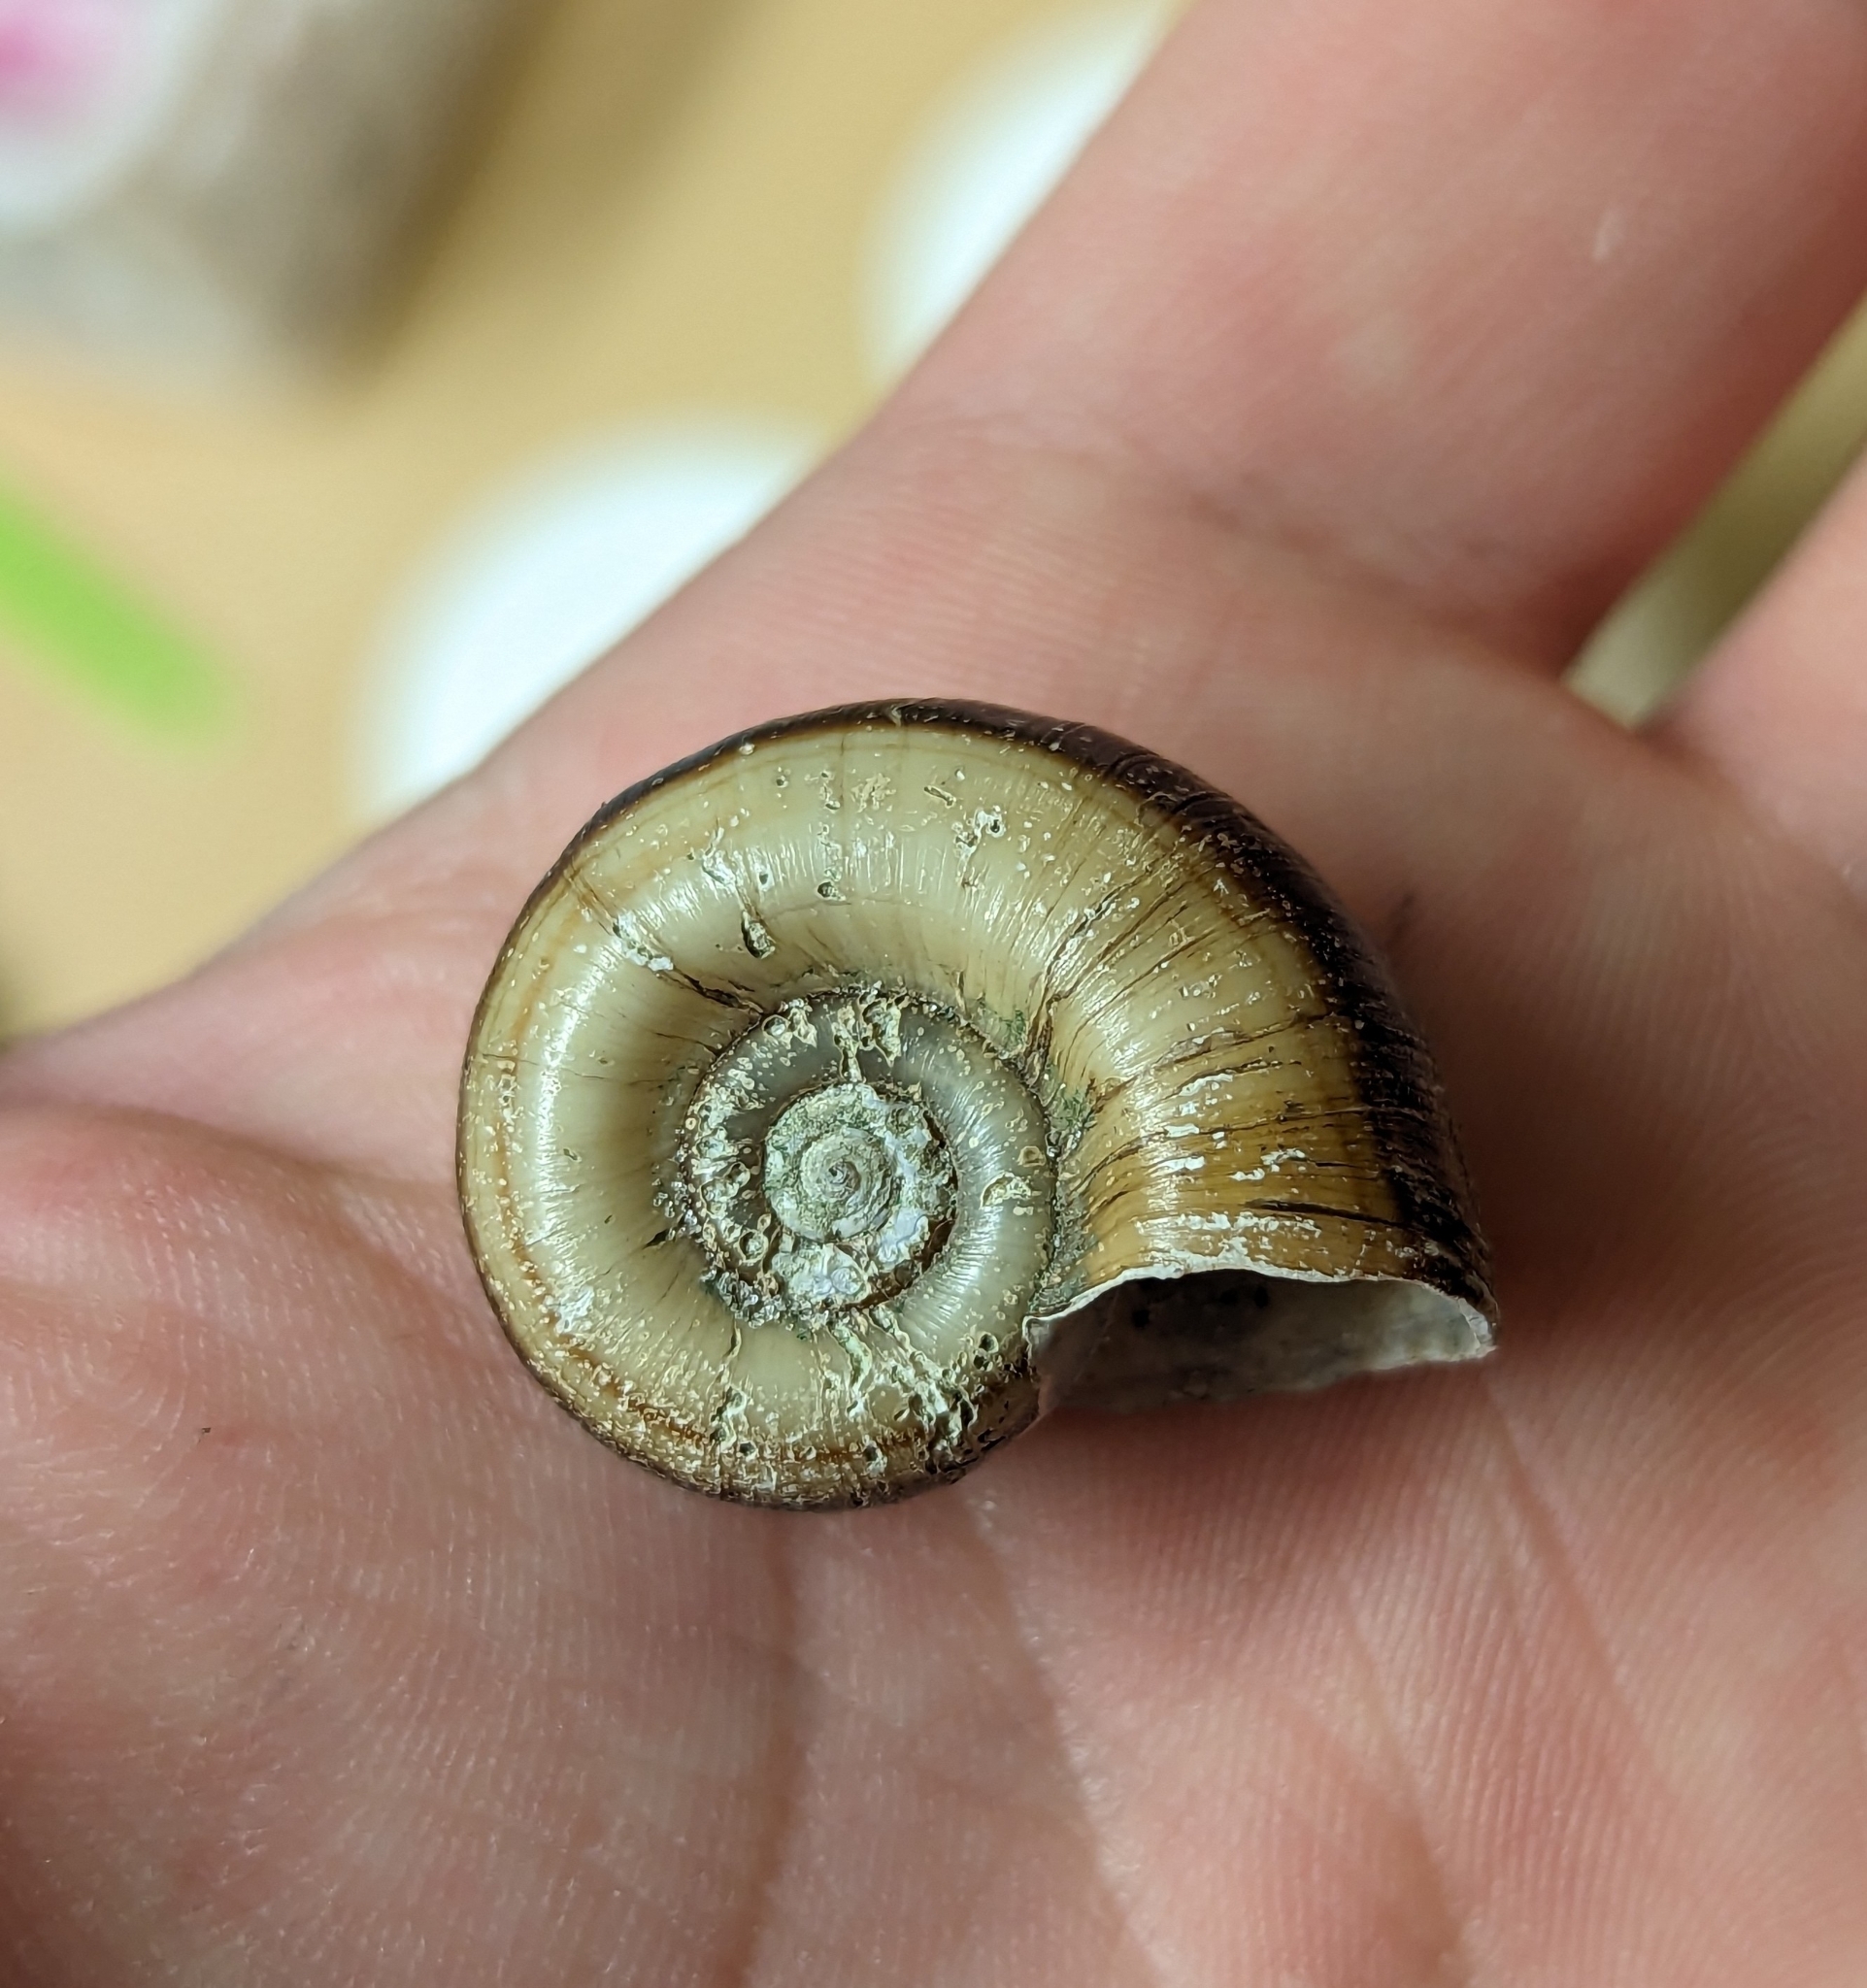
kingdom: Animalia
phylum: Mollusca
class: Gastropoda
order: Architaenioglossa
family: Ampullariidae
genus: Marisa
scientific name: Marisa cornuarietis
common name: Giant ramshorn snail
